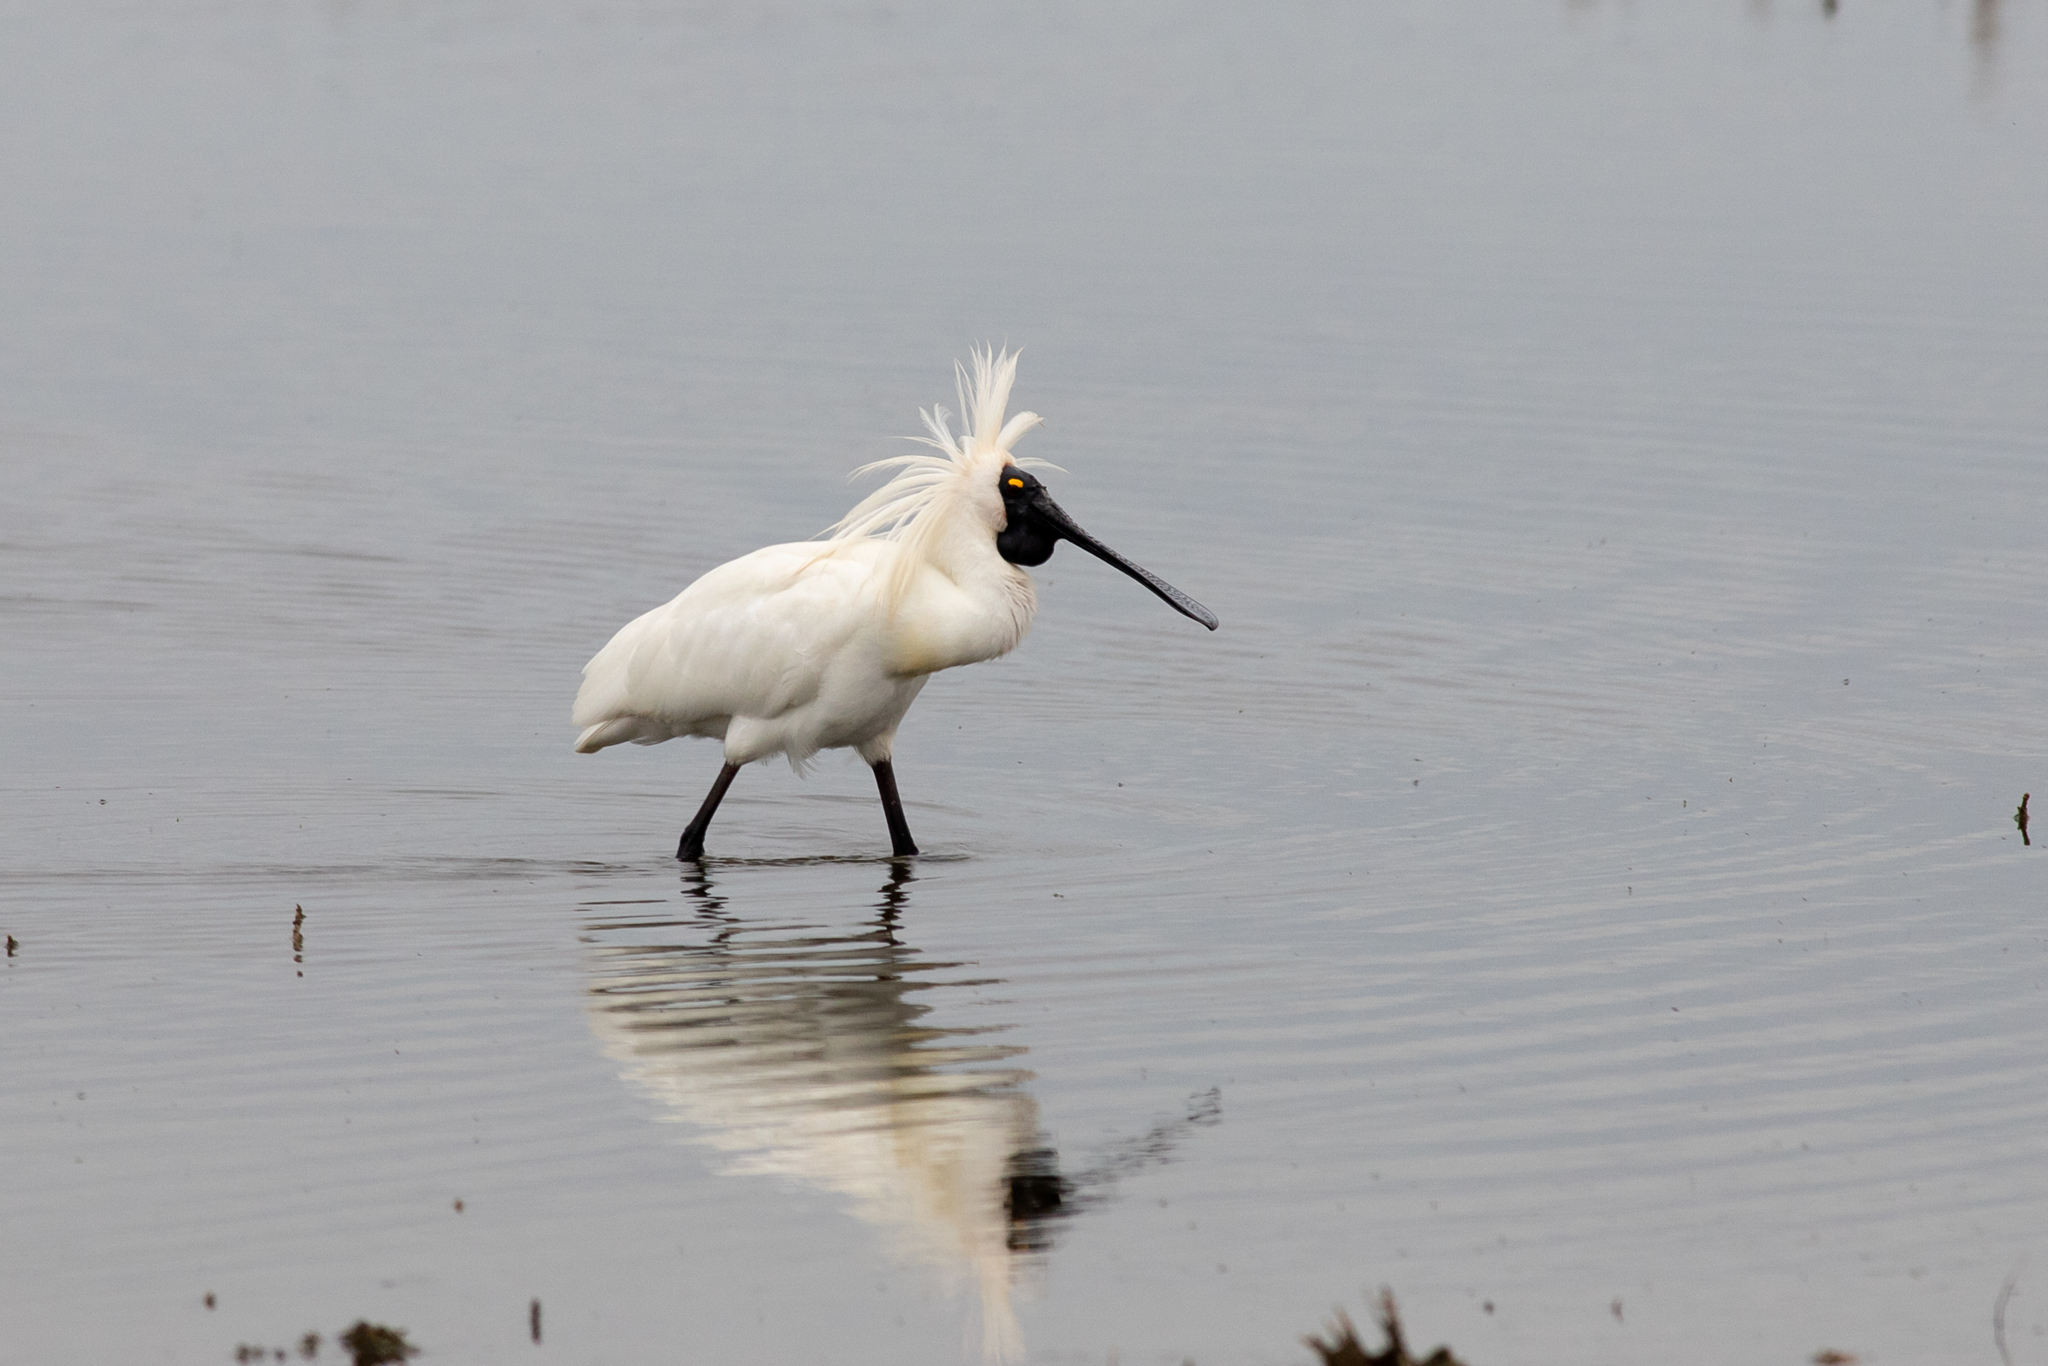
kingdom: Animalia
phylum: Chordata
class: Aves
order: Pelecaniformes
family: Threskiornithidae
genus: Platalea
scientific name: Platalea regia
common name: Royal spoonbill
